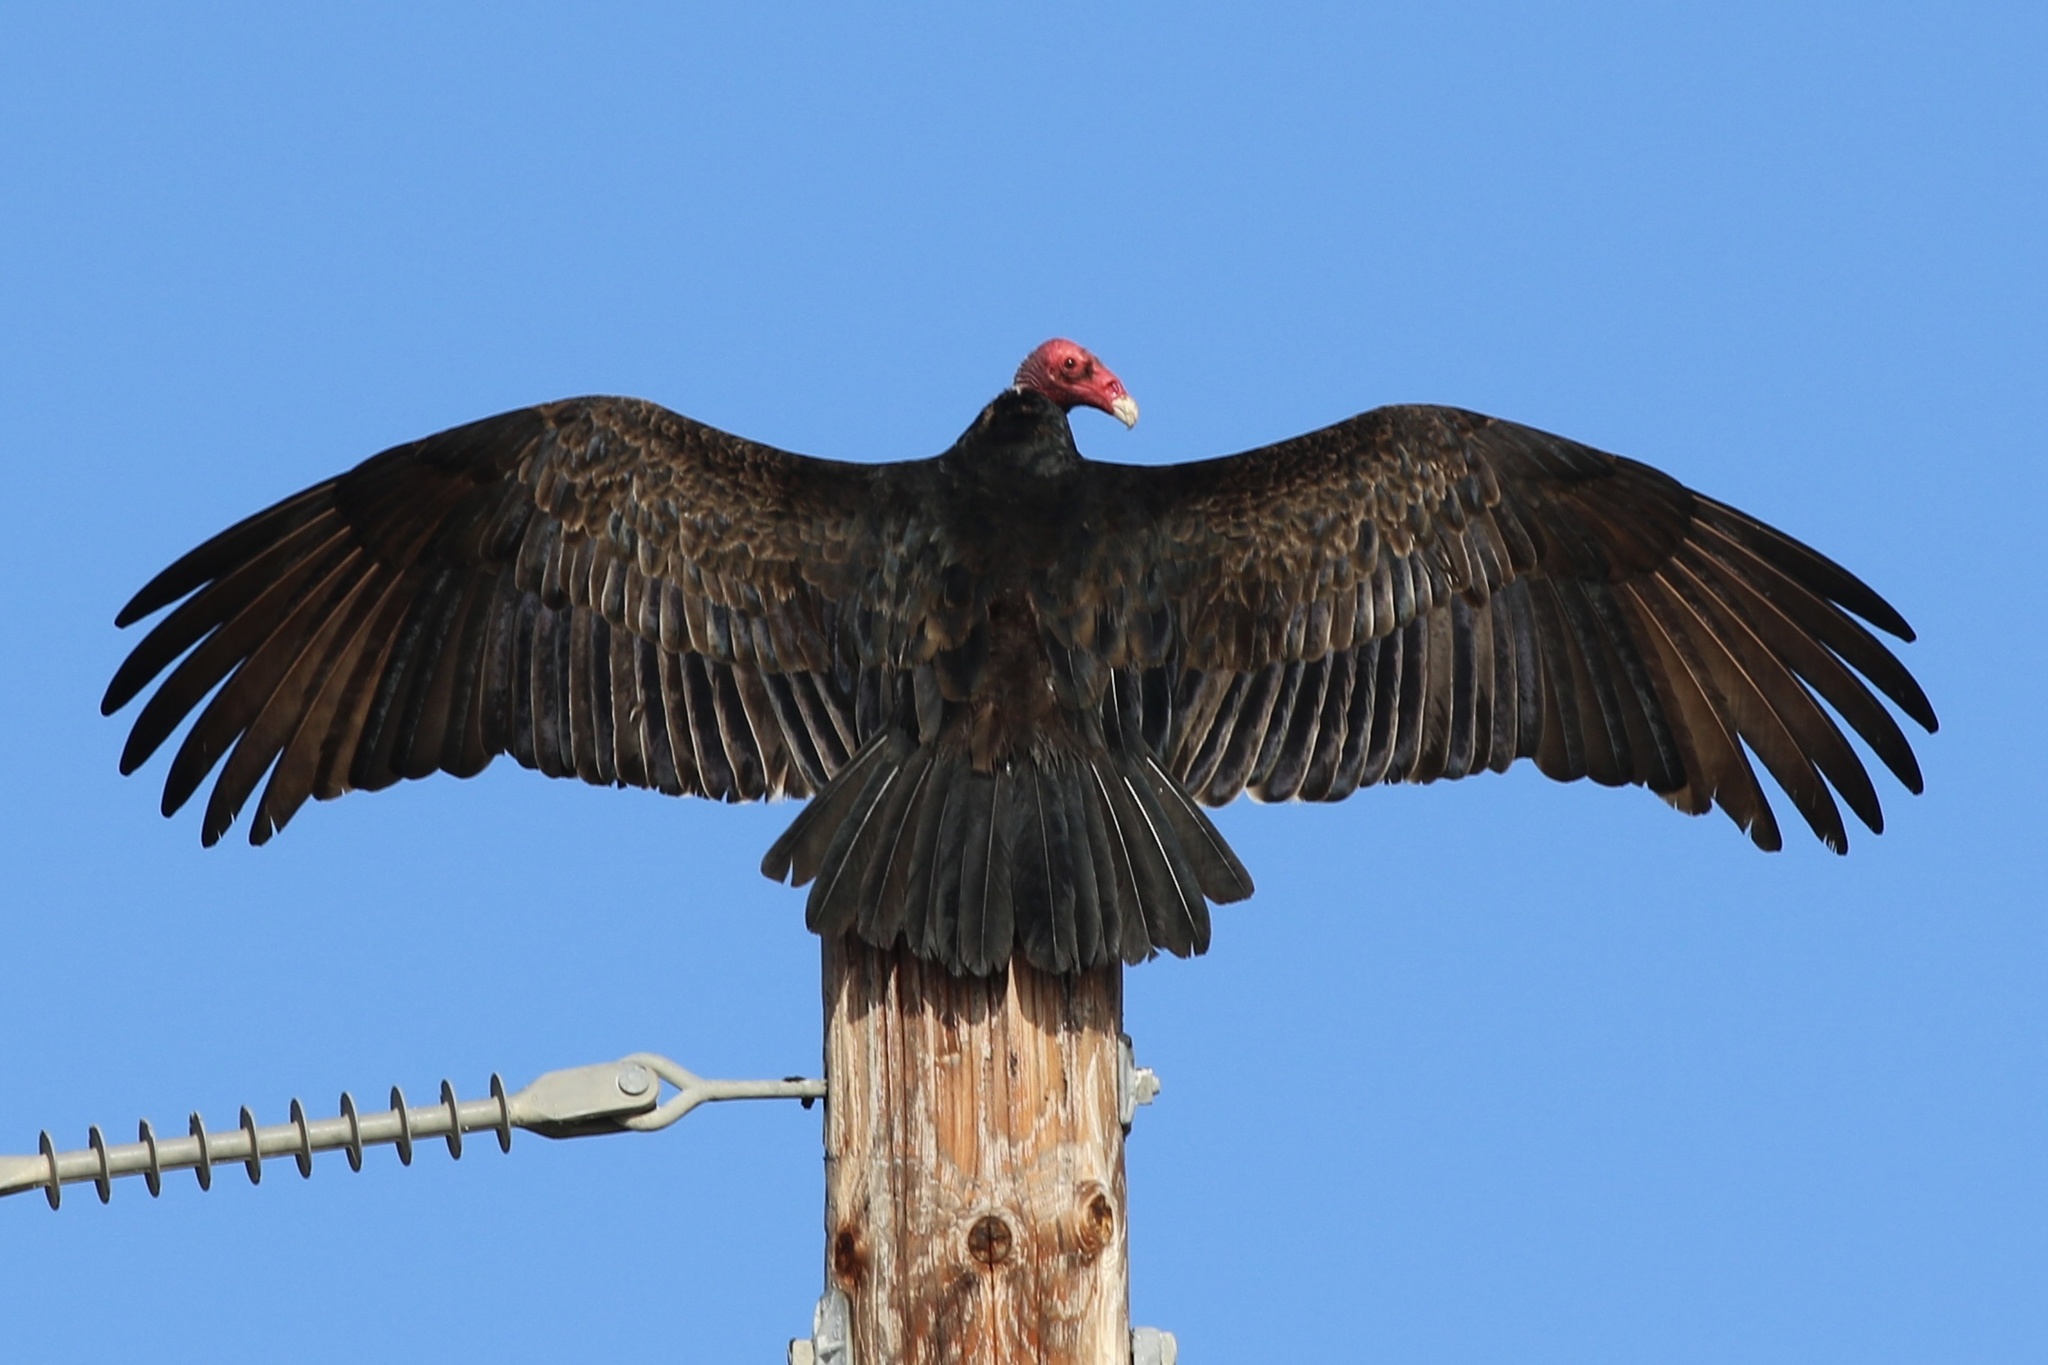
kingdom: Animalia
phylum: Chordata
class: Aves
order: Accipitriformes
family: Cathartidae
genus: Cathartes
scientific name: Cathartes aura
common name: Turkey vulture
